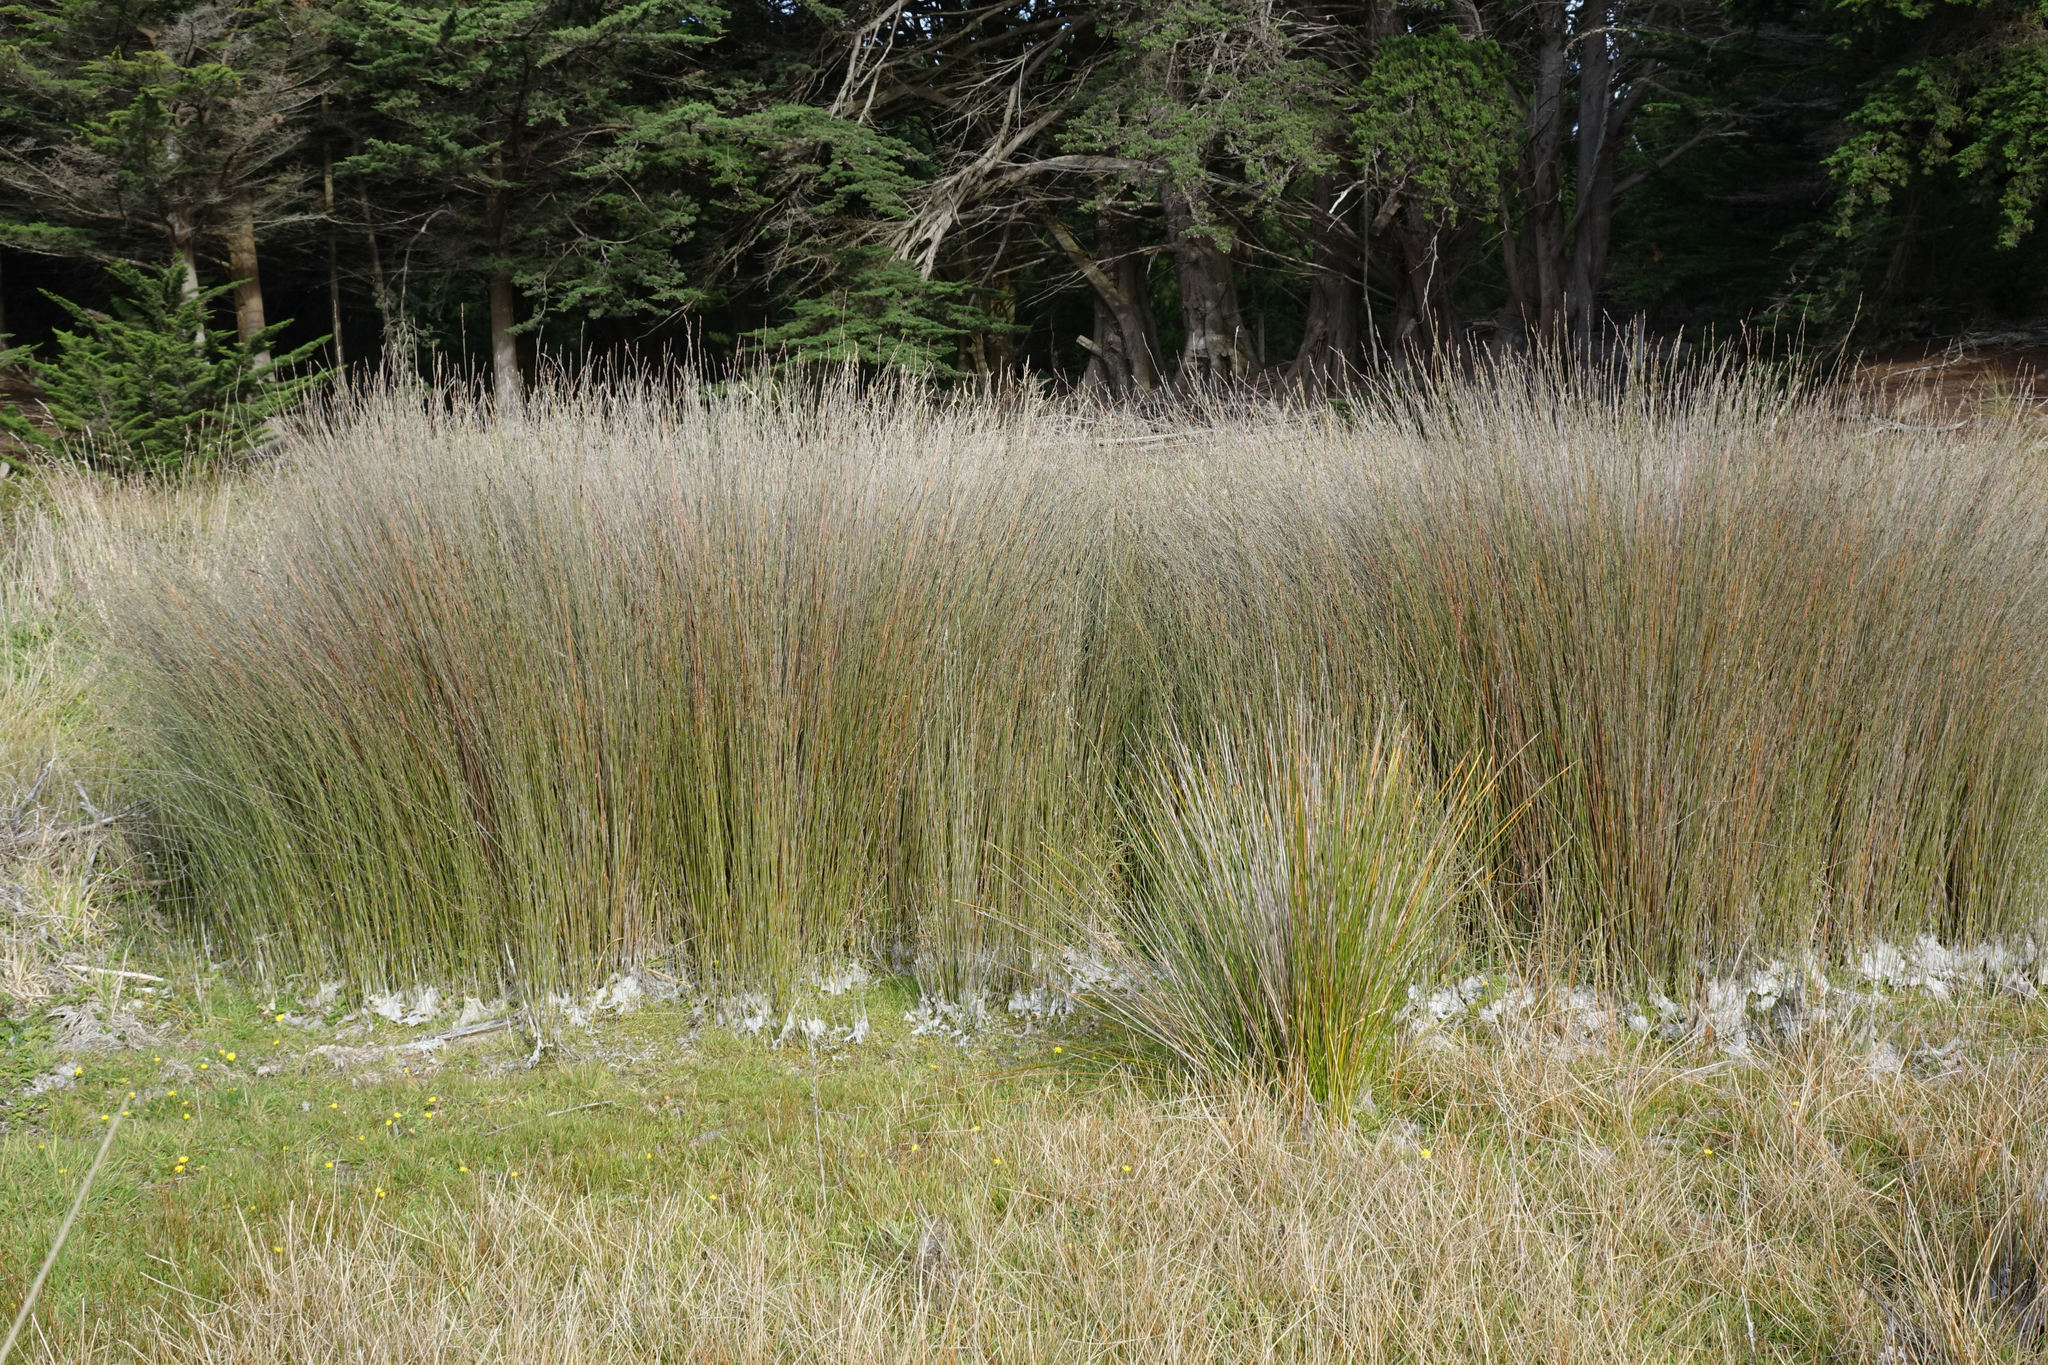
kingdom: Plantae
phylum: Tracheophyta
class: Liliopsida
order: Poales
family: Restionaceae
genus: Apodasmia
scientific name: Apodasmia similis
